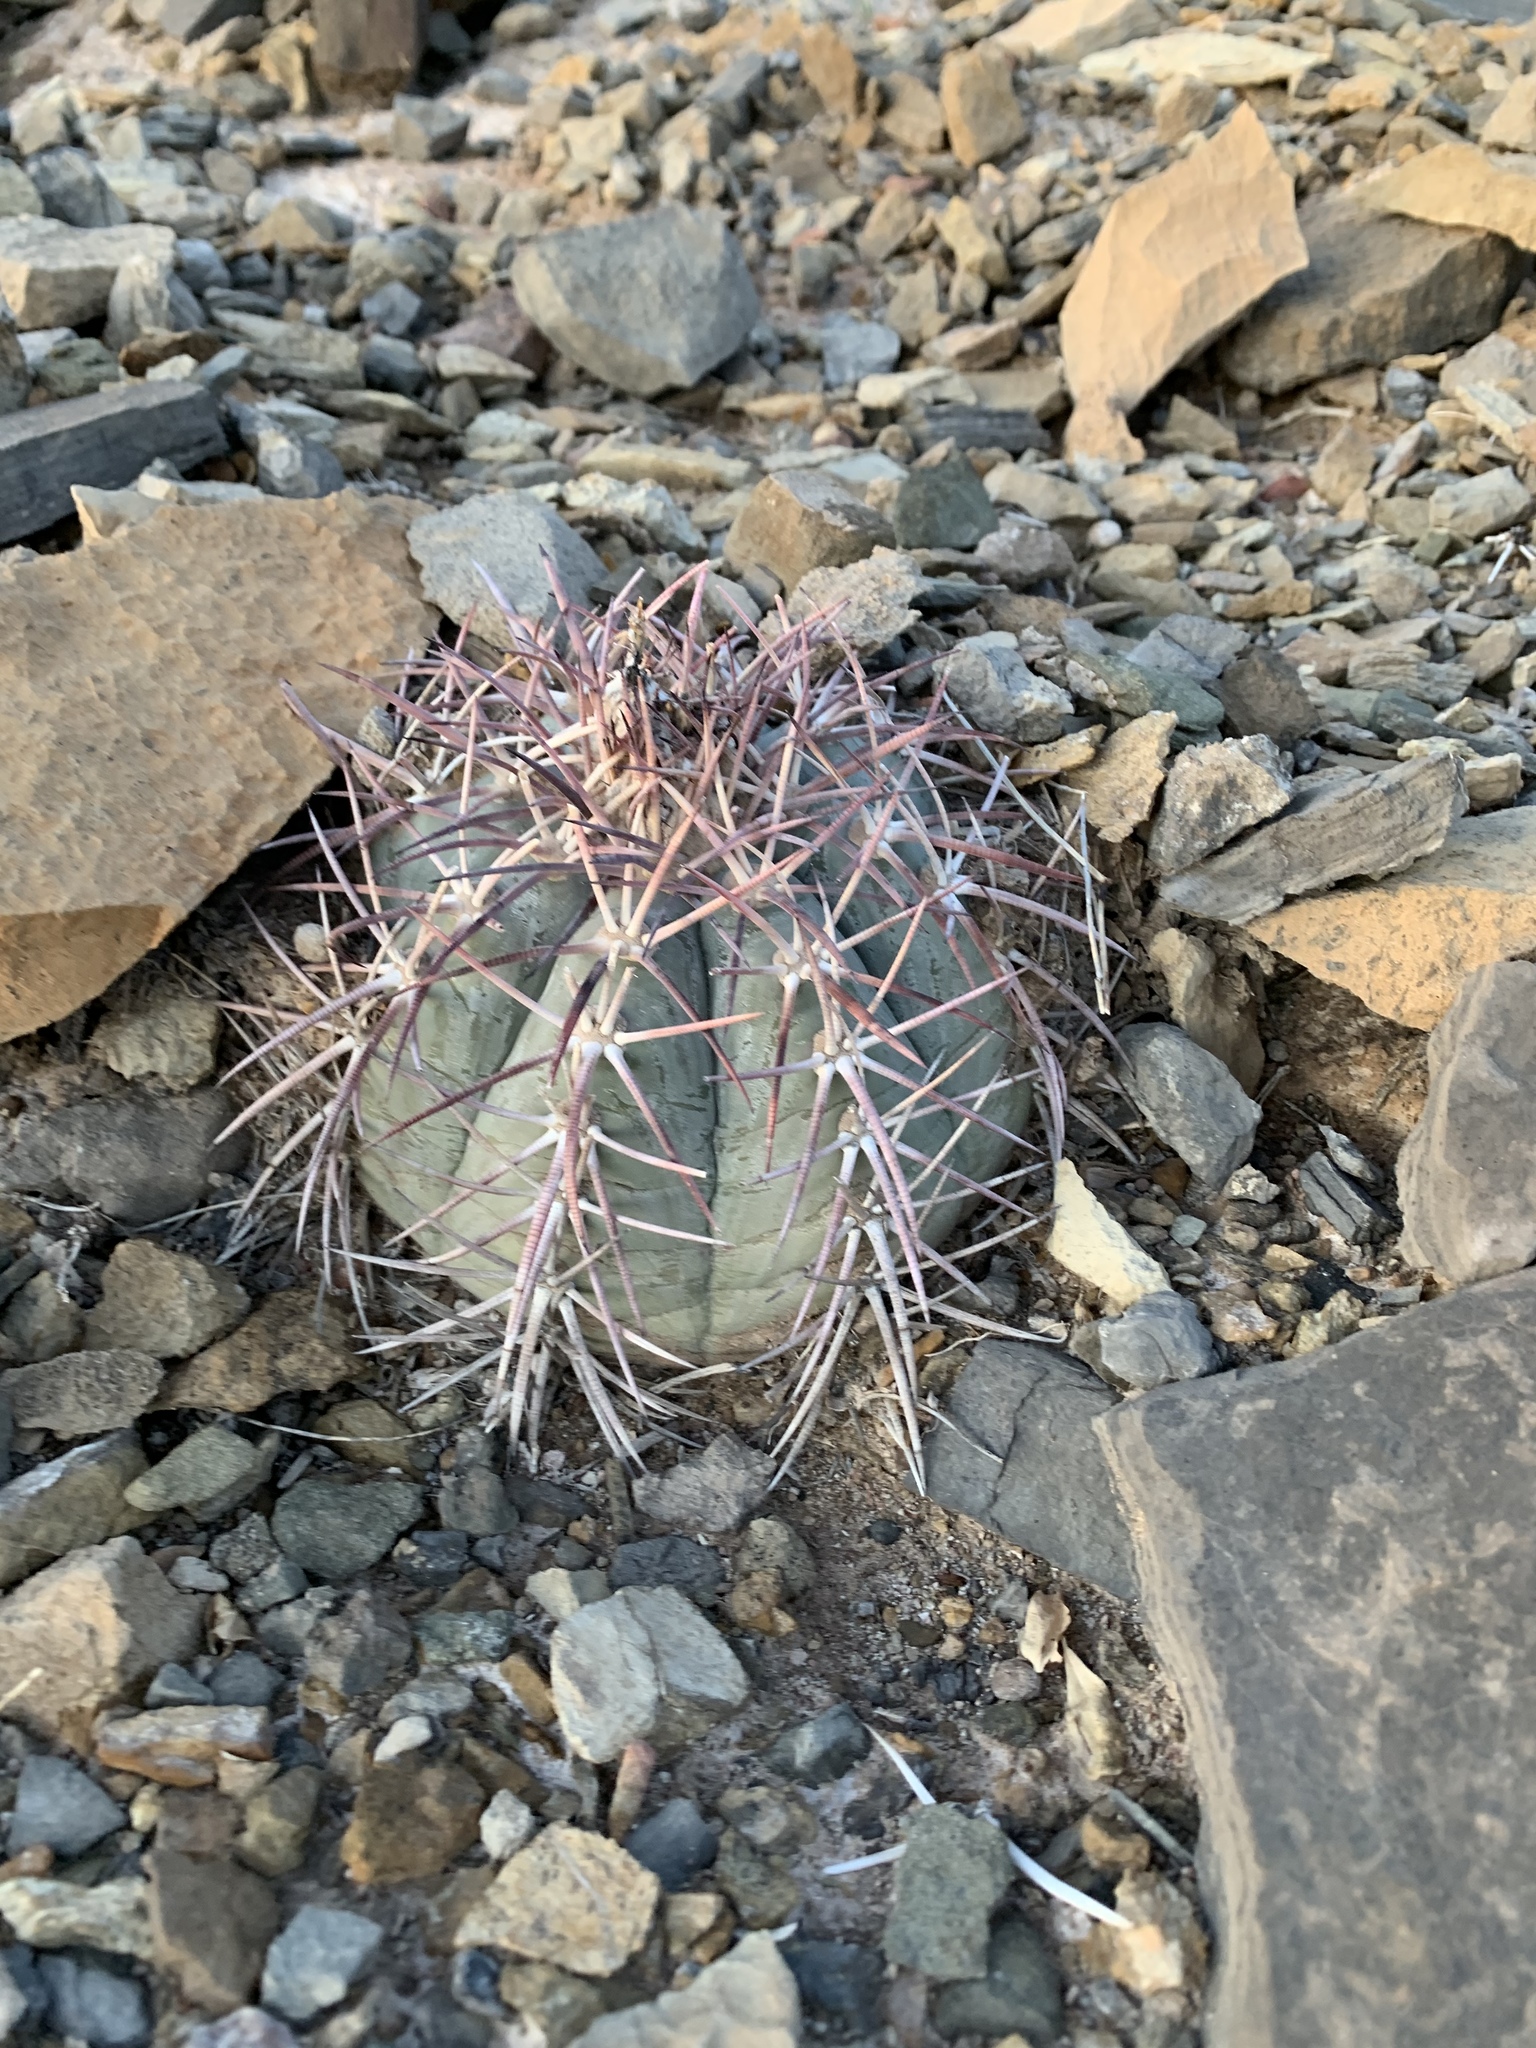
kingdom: Plantae
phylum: Tracheophyta
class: Magnoliopsida
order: Caryophyllales
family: Cactaceae
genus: Echinocactus
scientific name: Echinocactus horizonthalonius
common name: Devilshead
